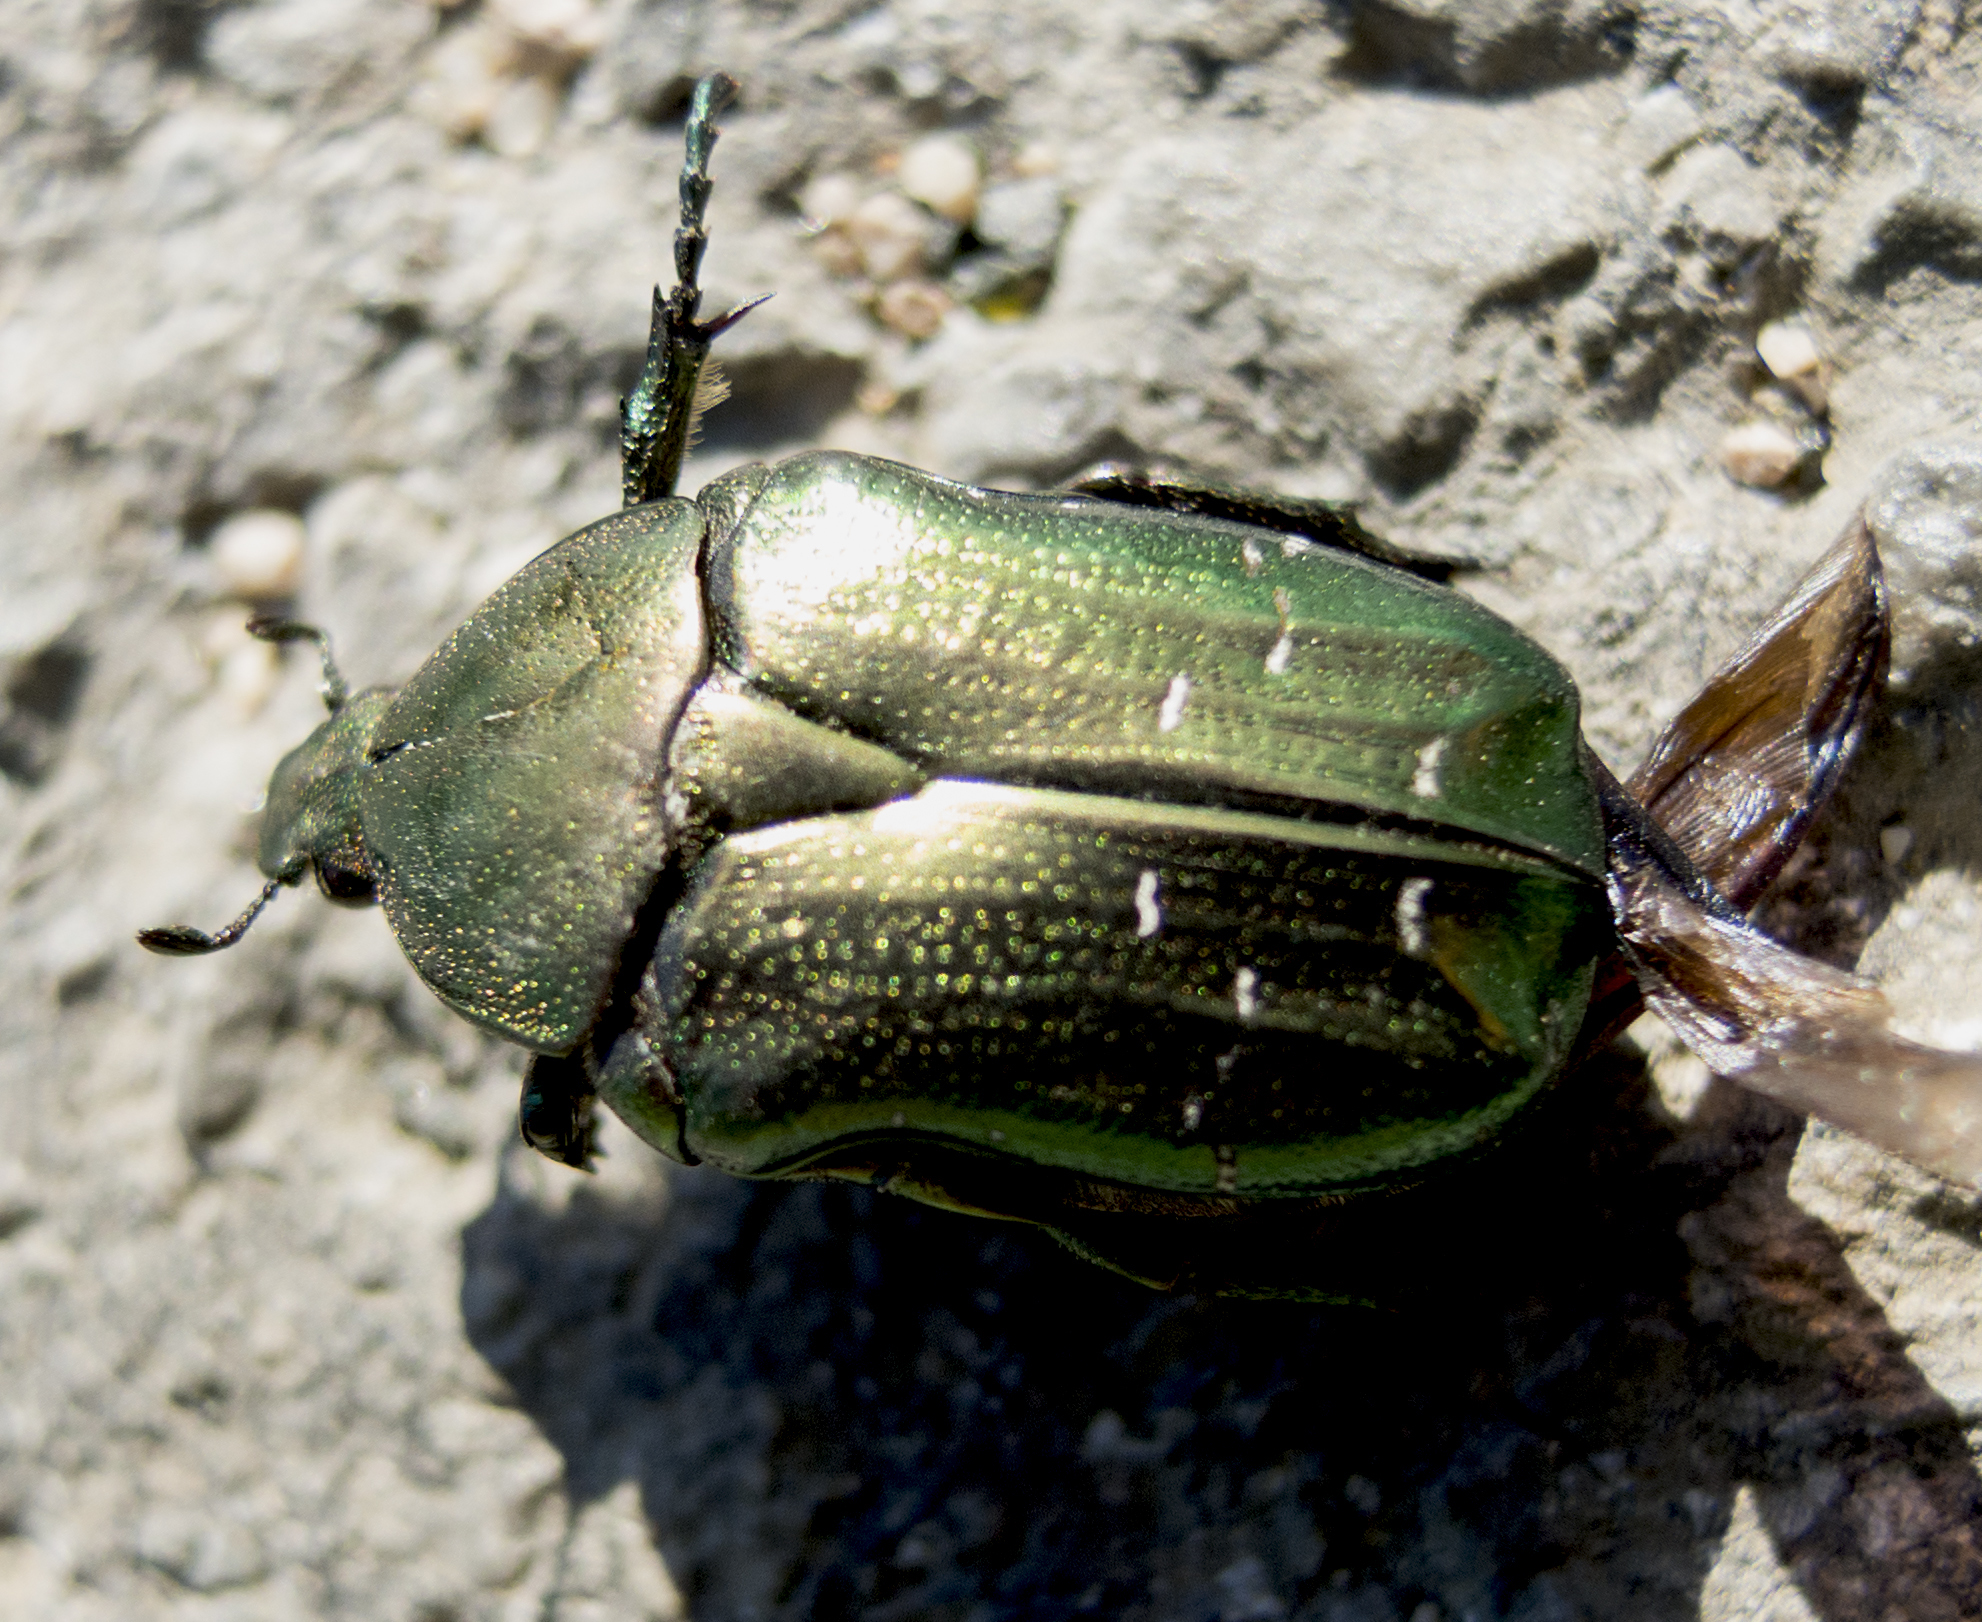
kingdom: Animalia
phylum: Arthropoda
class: Insecta
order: Coleoptera
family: Scarabaeidae
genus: Cetonia
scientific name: Cetonia aurata
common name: Rose chafer
